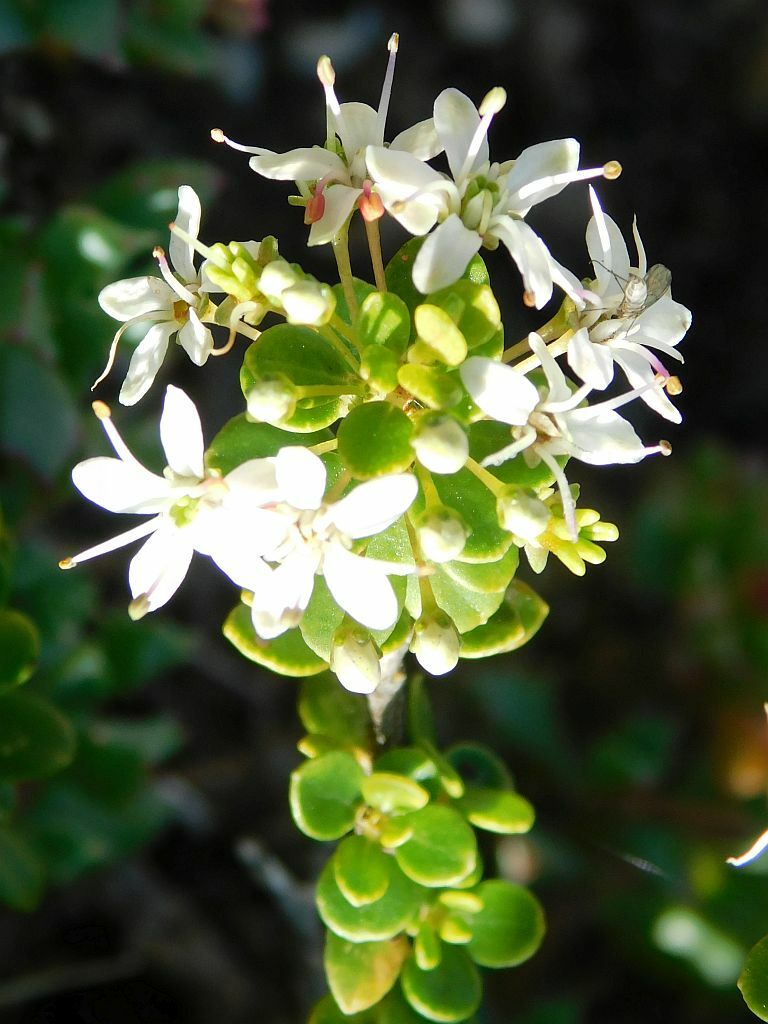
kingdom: Plantae
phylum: Tracheophyta
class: Magnoliopsida
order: Sapindales
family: Rutaceae
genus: Agathosma
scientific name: Agathosma ovata
